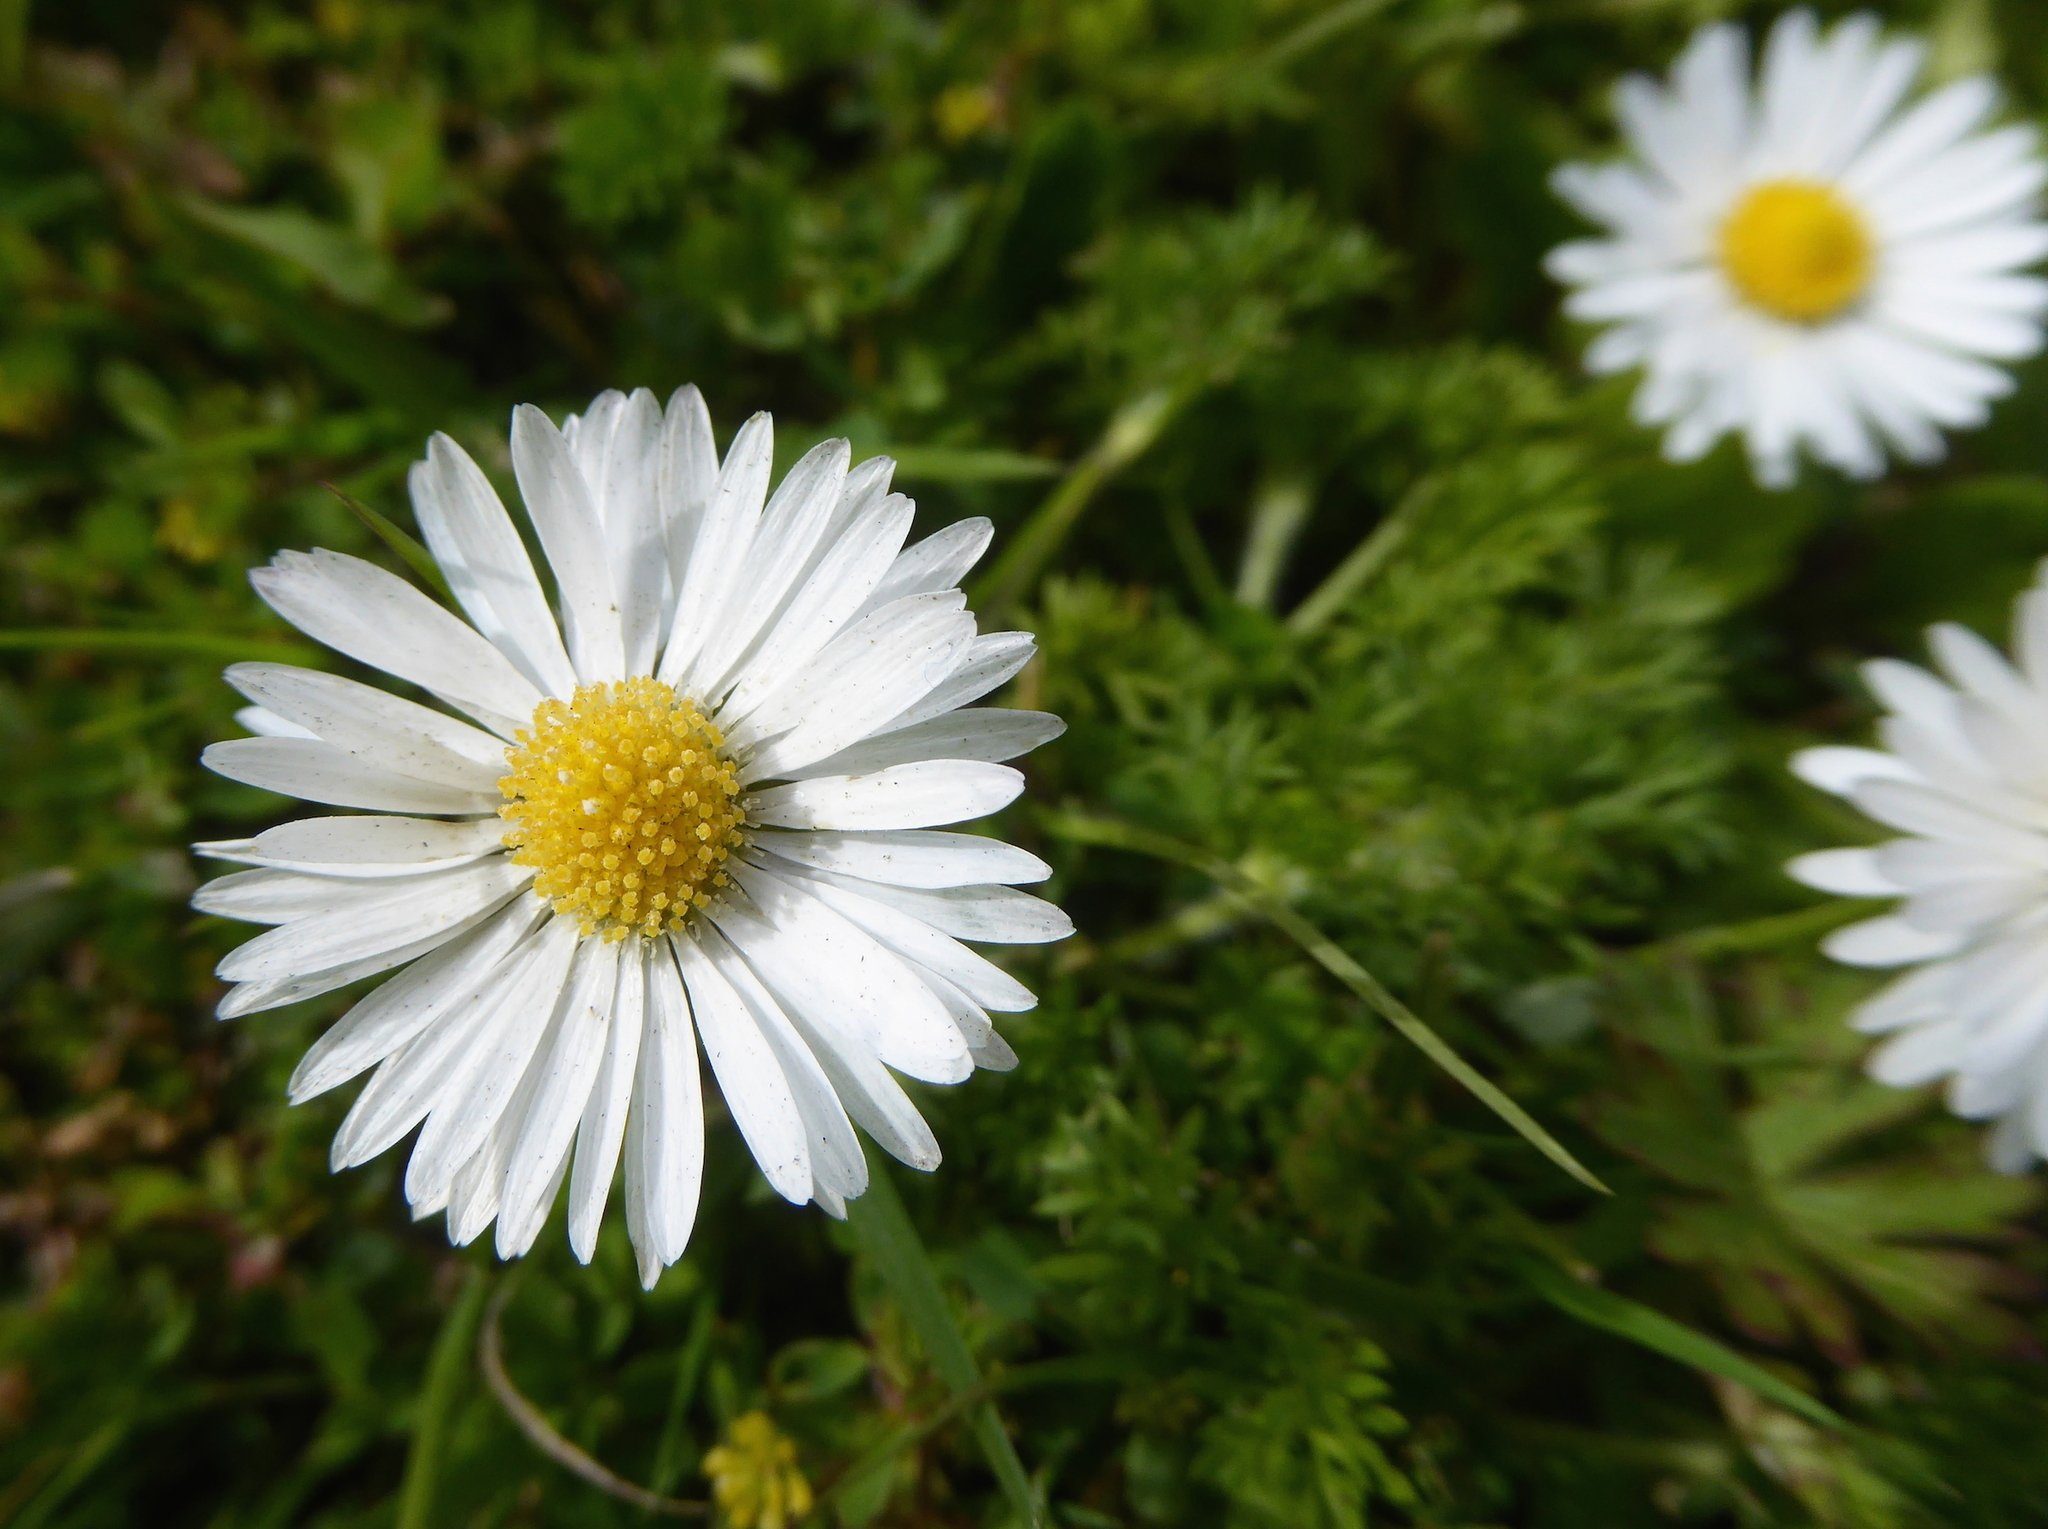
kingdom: Plantae
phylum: Tracheophyta
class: Magnoliopsida
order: Asterales
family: Asteraceae
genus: Bellis
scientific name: Bellis perennis
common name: Lawndaisy
